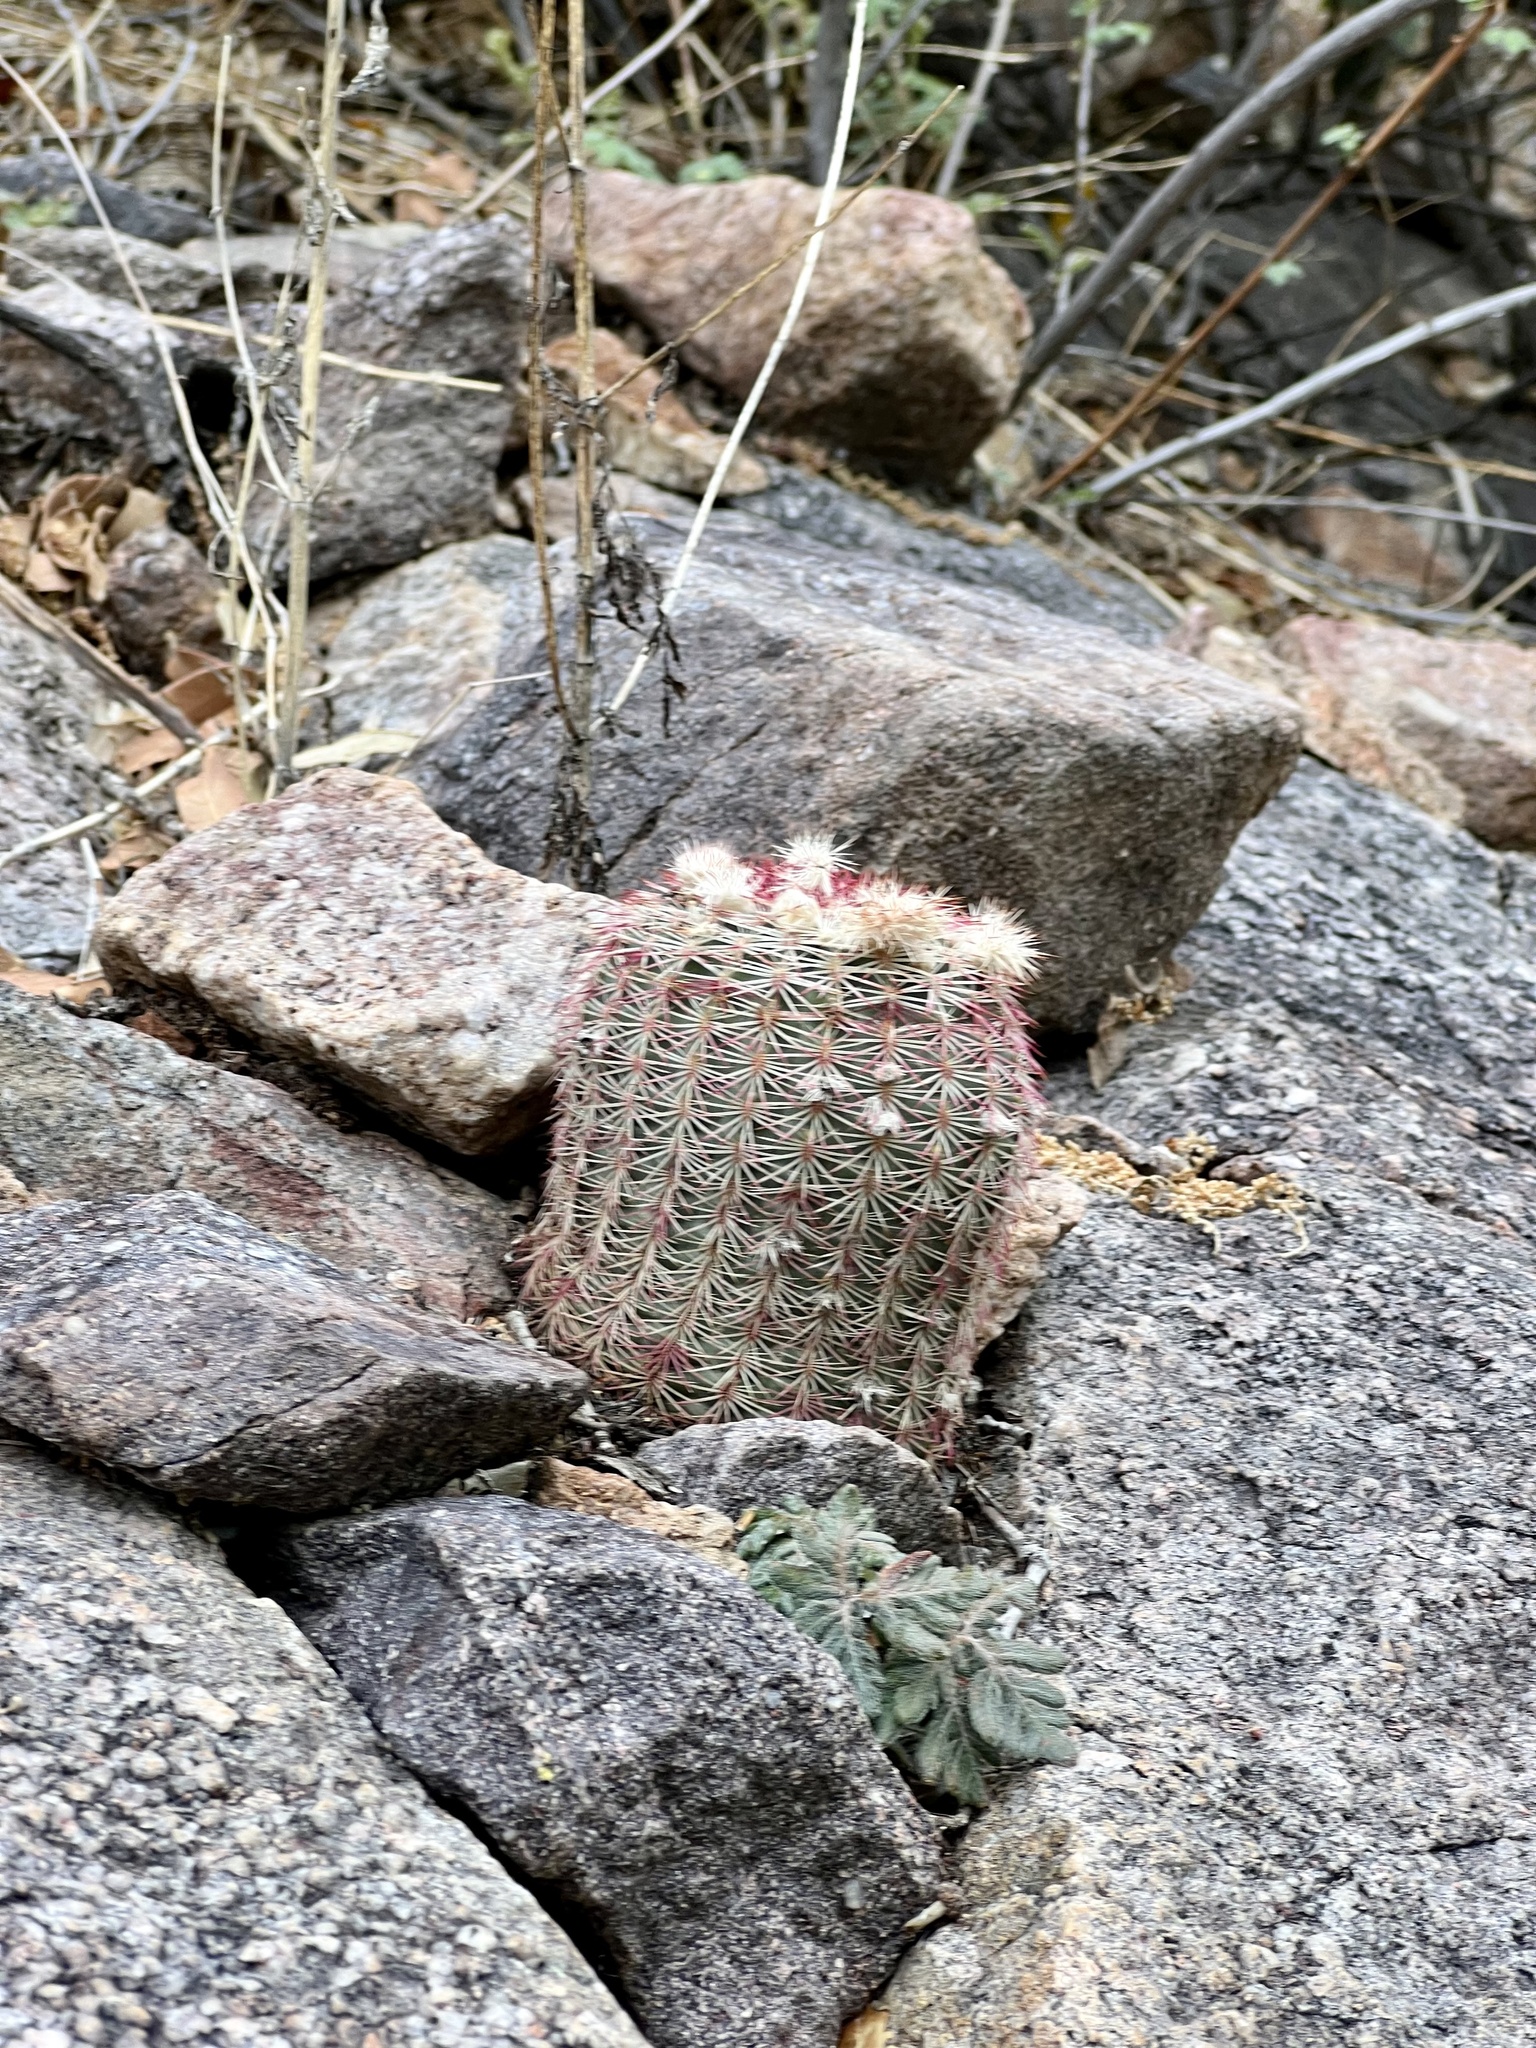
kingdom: Plantae
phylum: Tracheophyta
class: Magnoliopsida
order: Caryophyllales
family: Cactaceae
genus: Echinocereus
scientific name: Echinocereus rigidissimus
